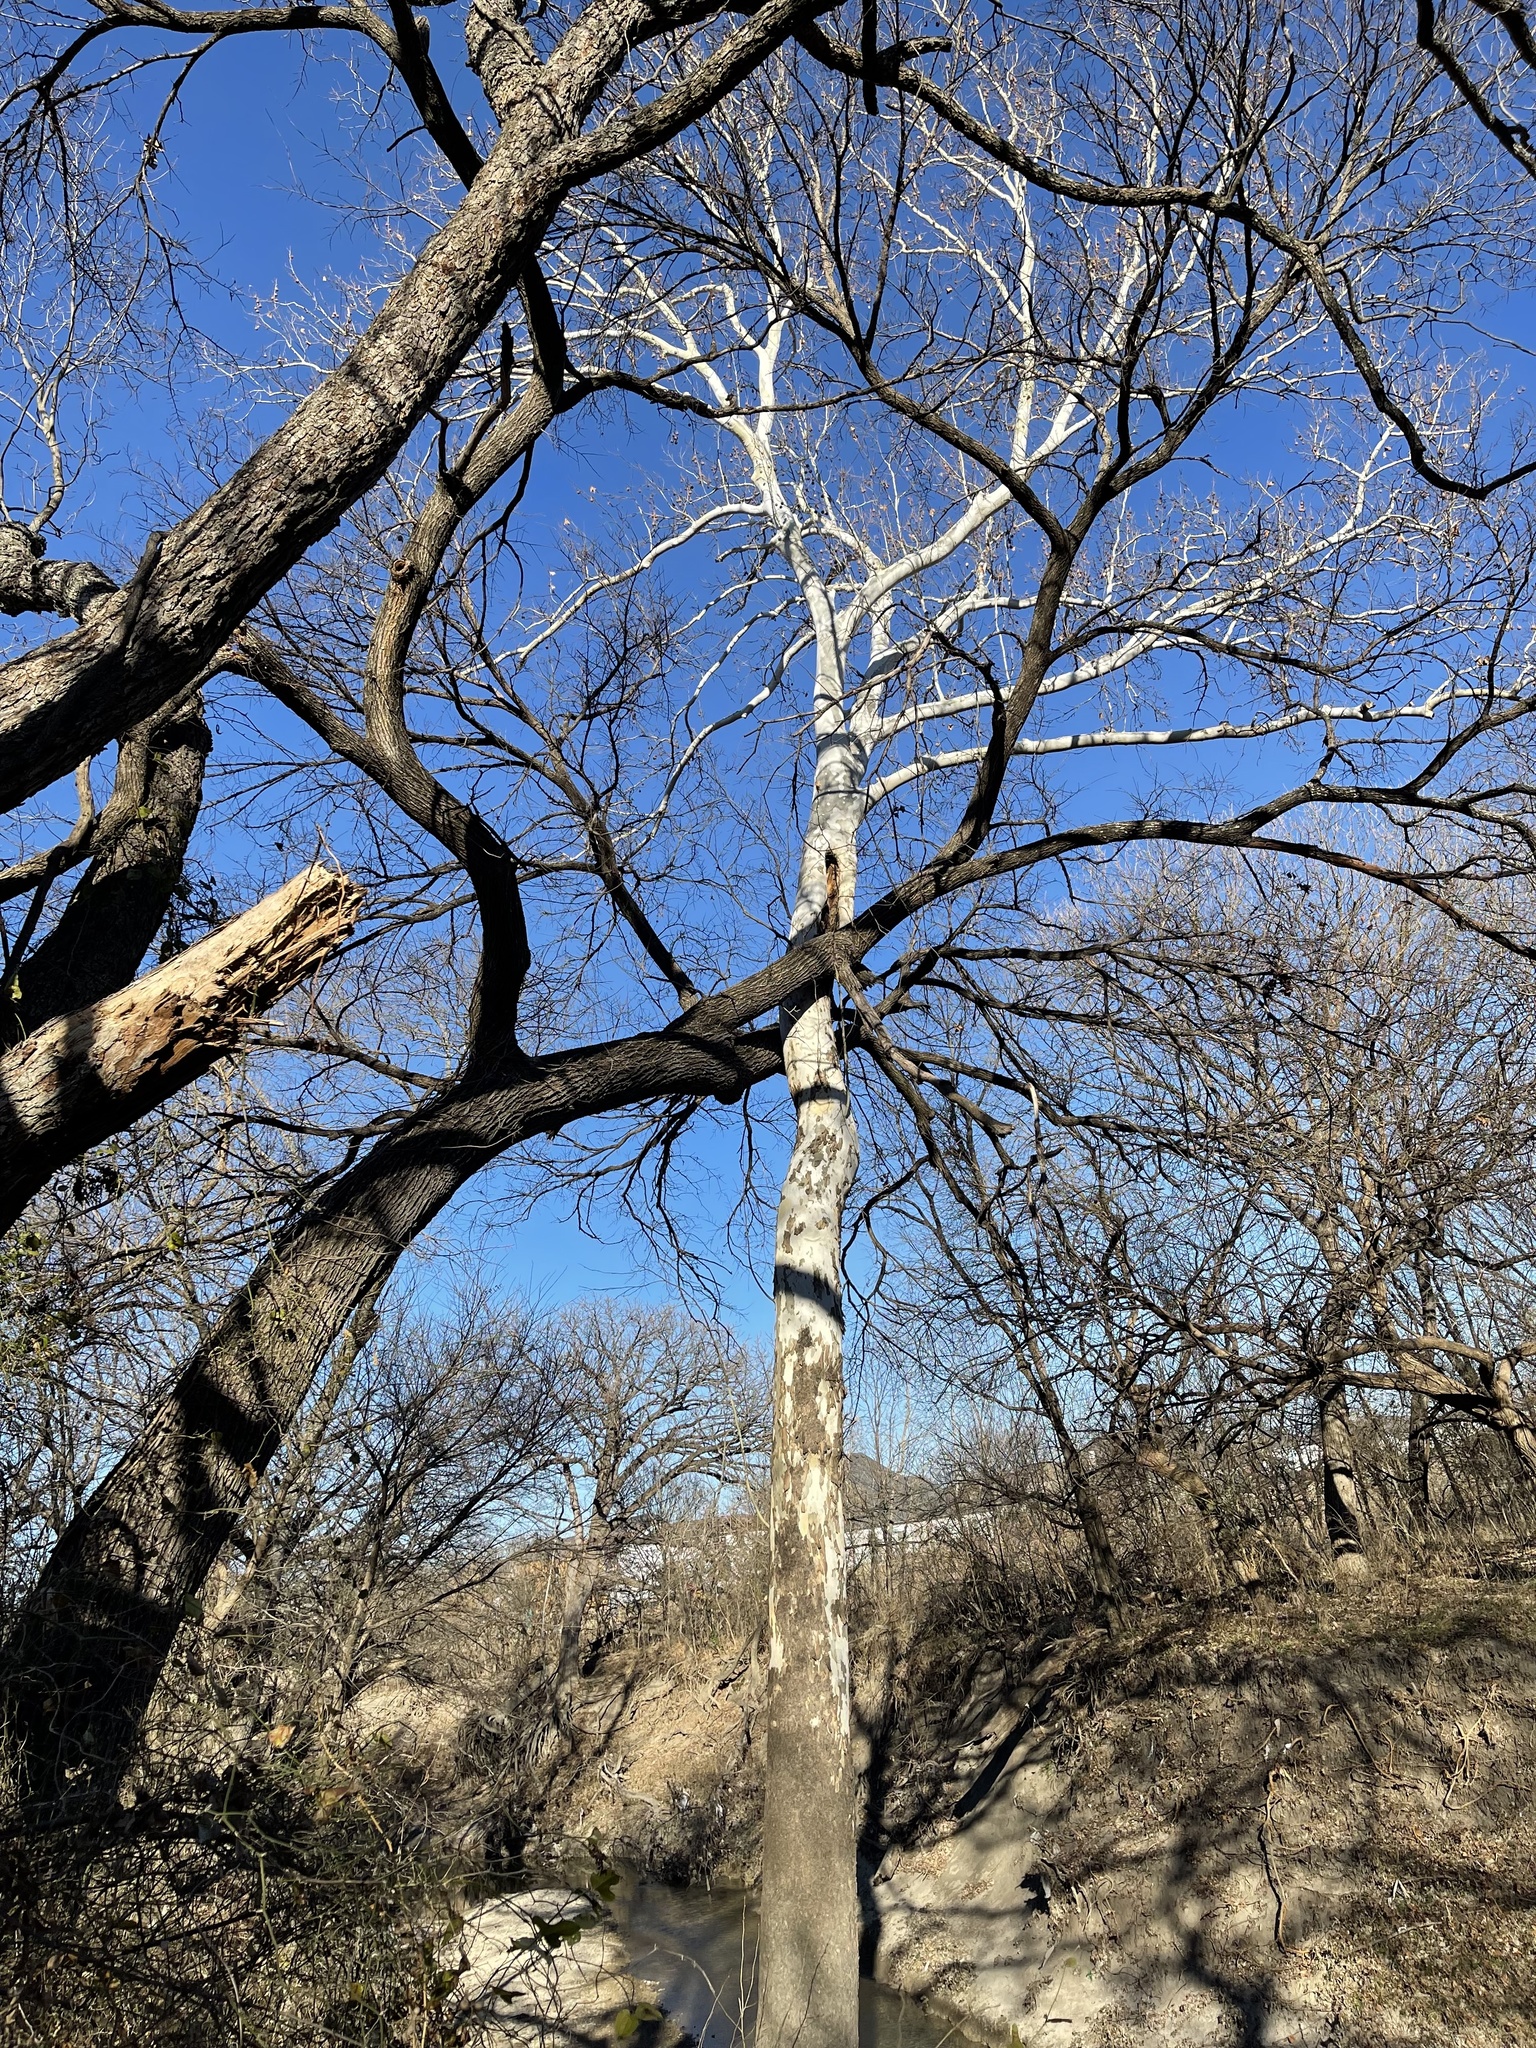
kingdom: Plantae
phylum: Tracheophyta
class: Magnoliopsida
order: Proteales
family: Platanaceae
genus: Platanus
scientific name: Platanus occidentalis
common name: American sycamore
